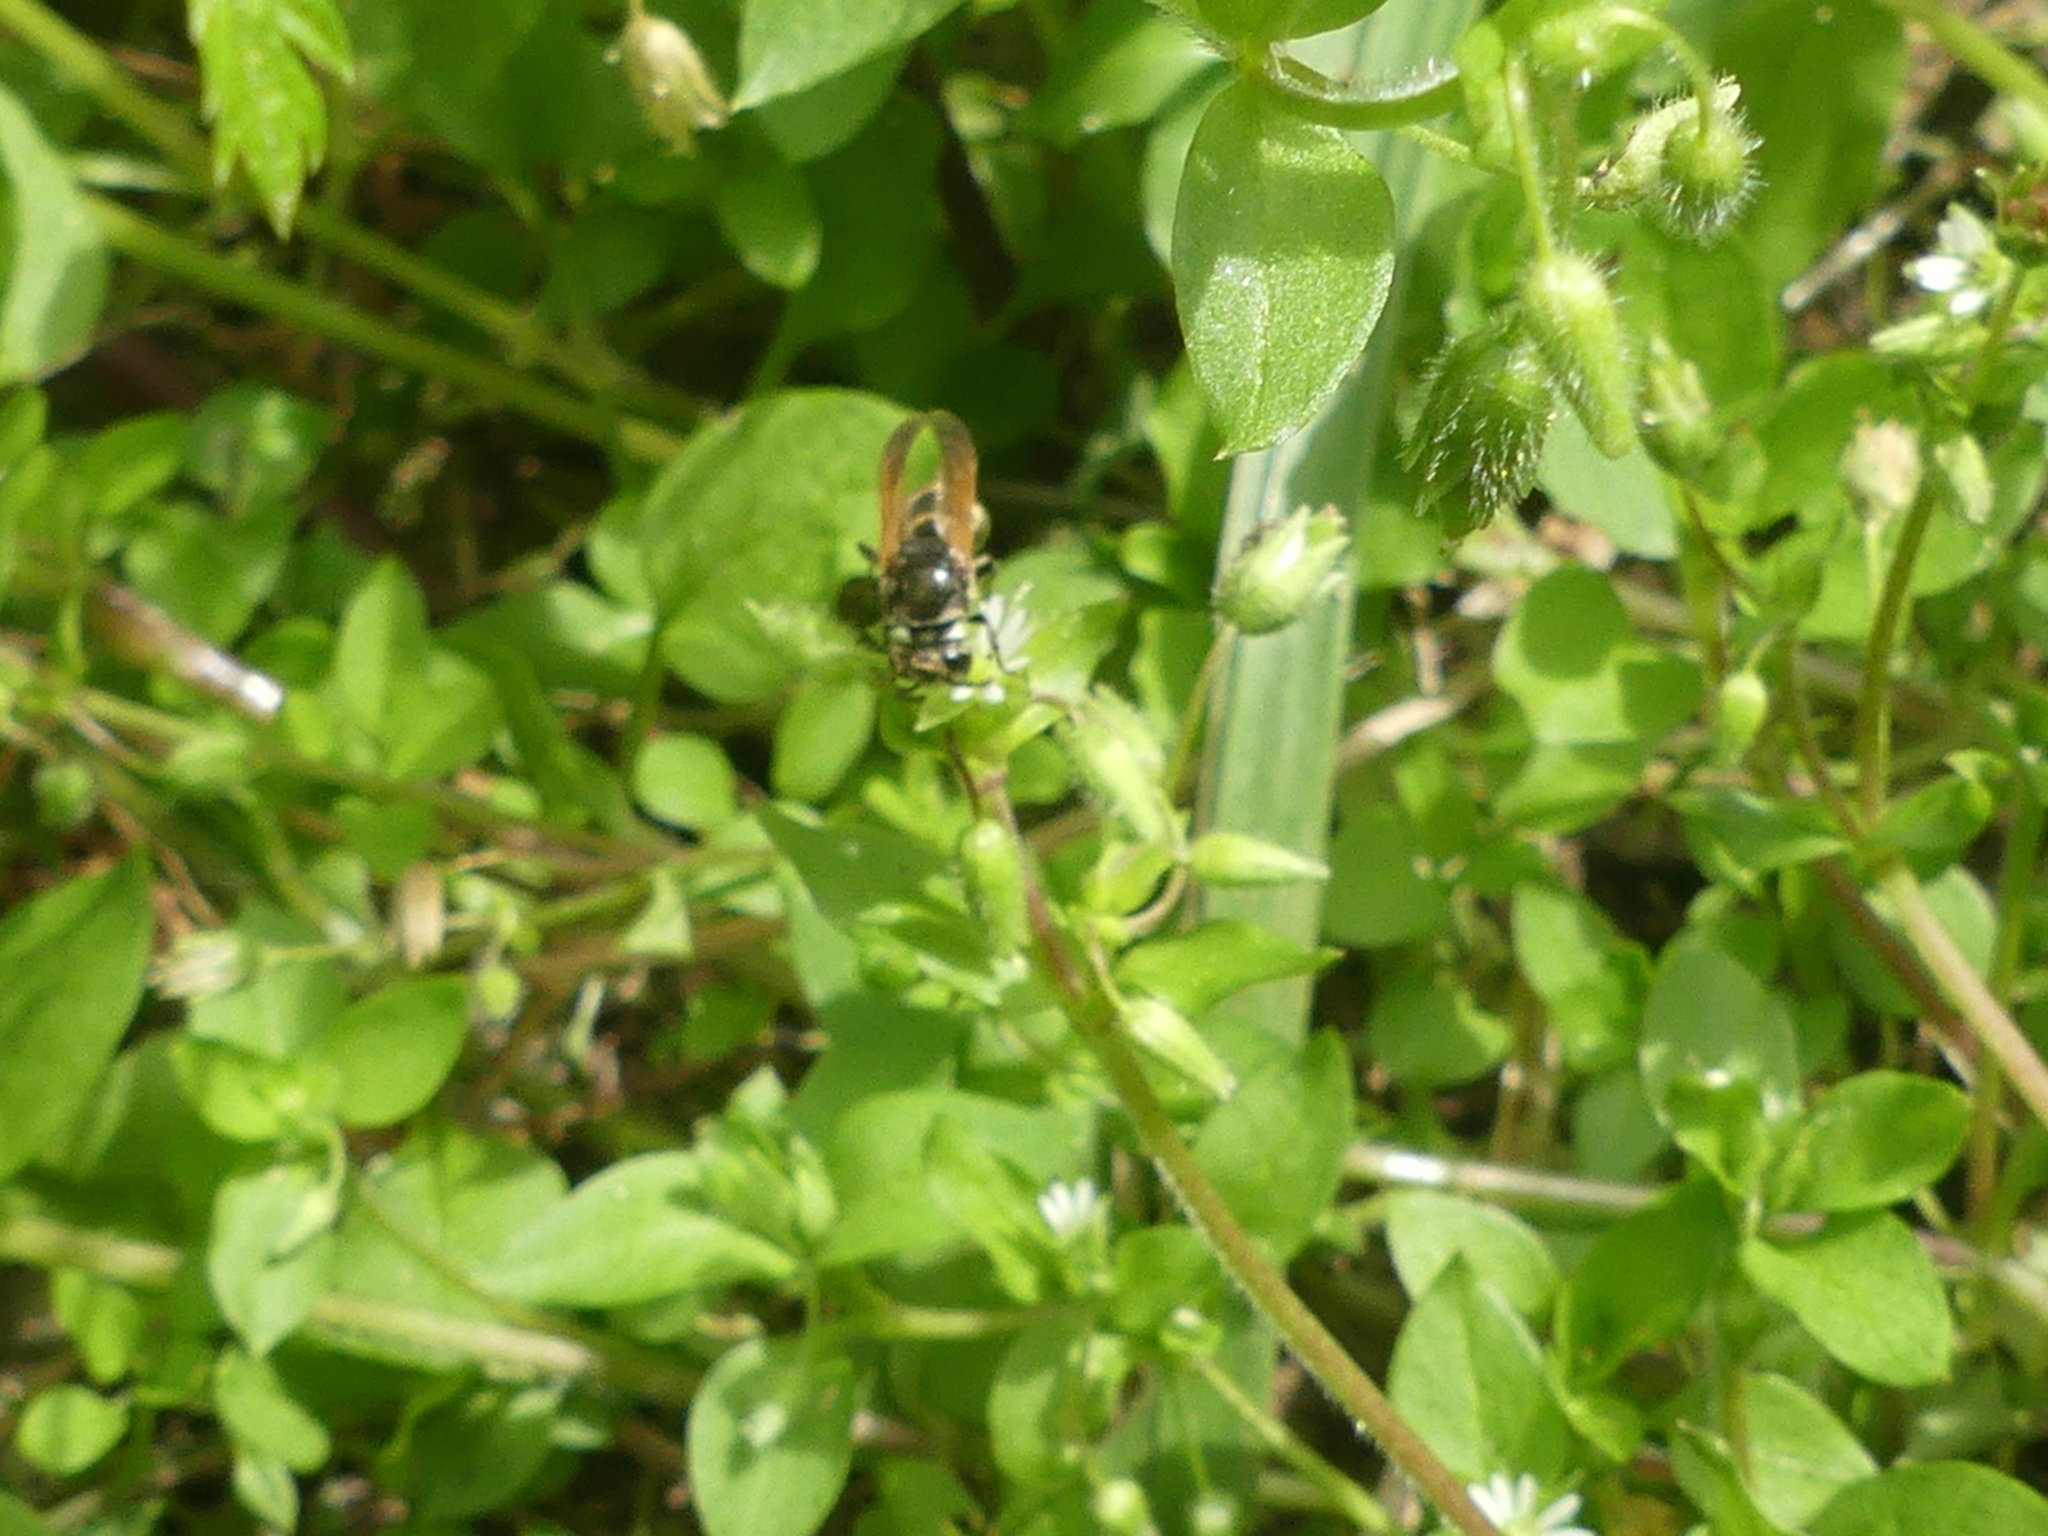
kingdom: Animalia
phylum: Arthropoda
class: Insecta
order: Hymenoptera
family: Vespidae
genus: Brachygastra
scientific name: Brachygastra mellifica
